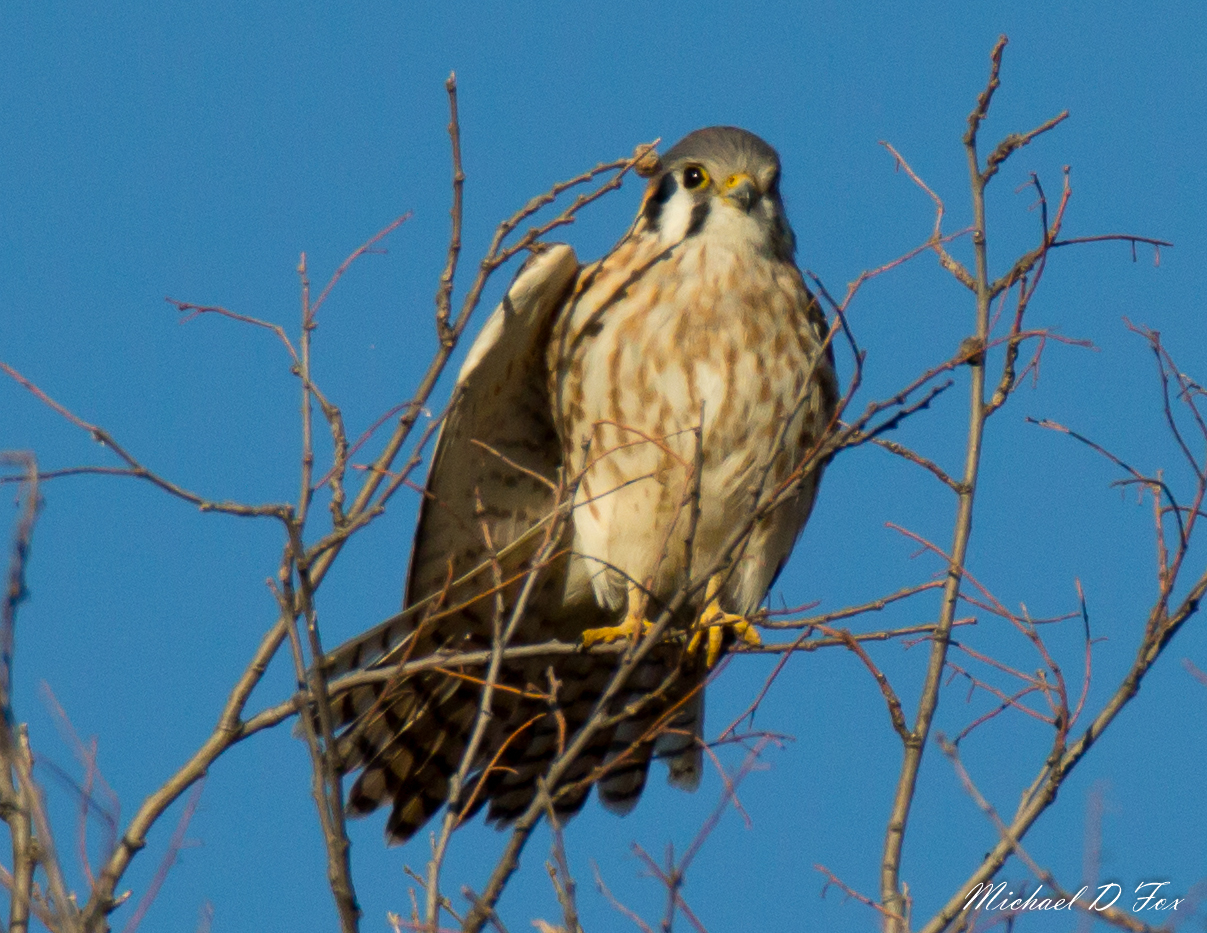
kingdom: Animalia
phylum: Chordata
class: Aves
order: Falconiformes
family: Falconidae
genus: Falco
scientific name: Falco sparverius
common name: American kestrel
